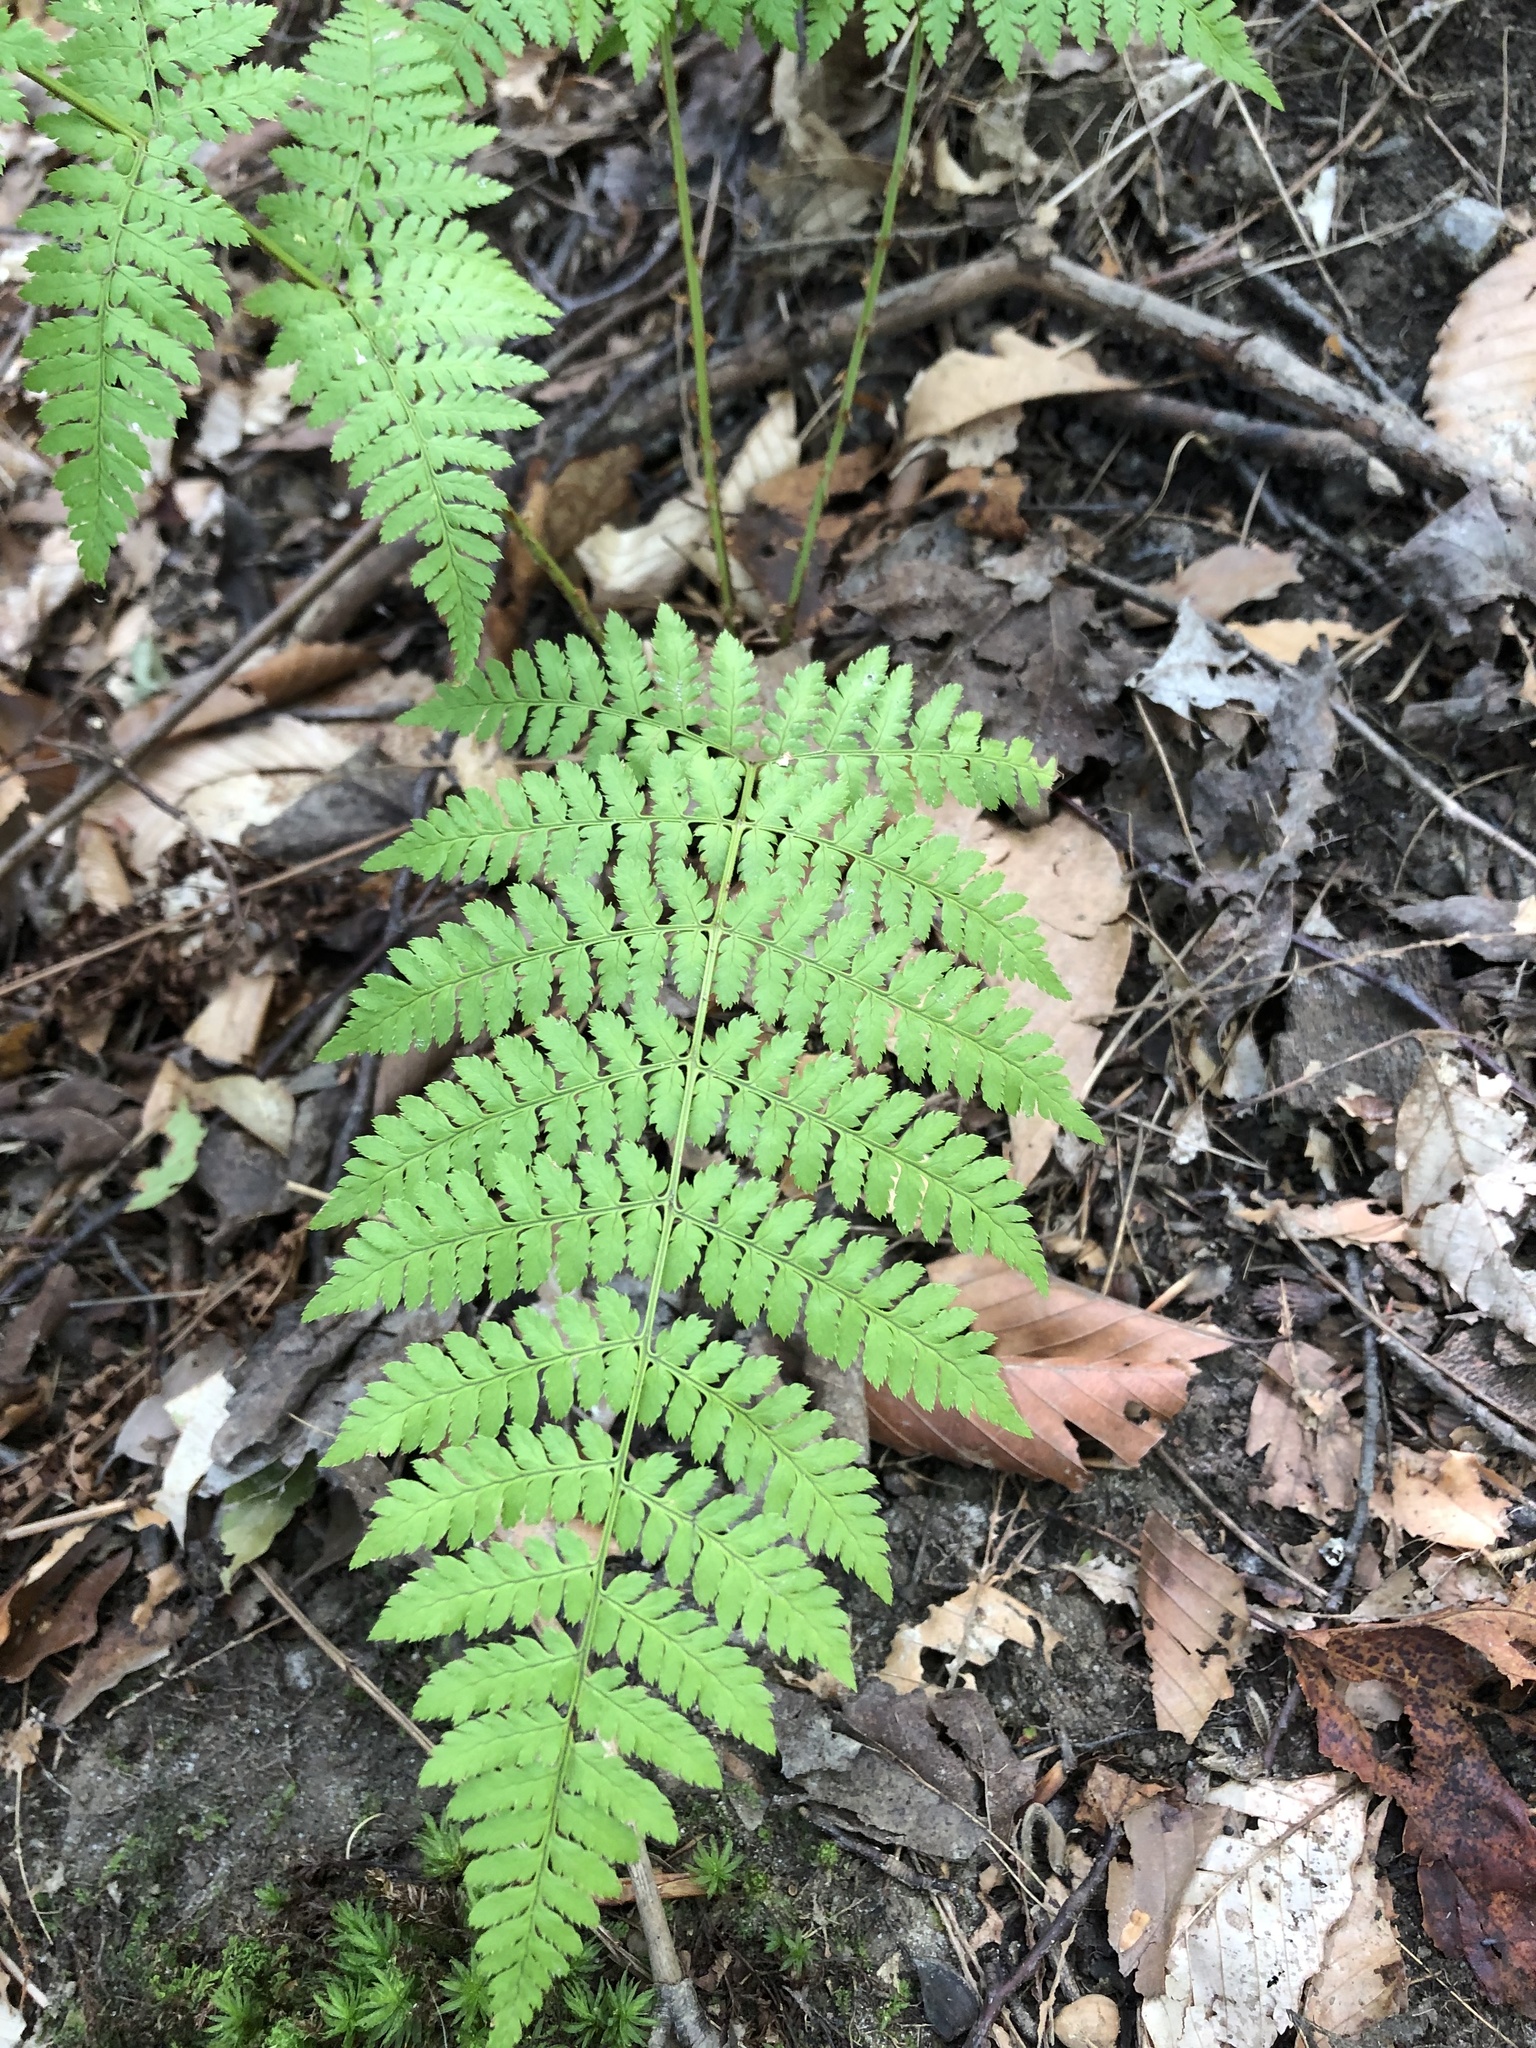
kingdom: Plantae
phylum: Tracheophyta
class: Polypodiopsida
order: Polypodiales
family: Dryopteridaceae
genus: Dryopteris
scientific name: Dryopteris intermedia
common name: Evergreen wood fern
